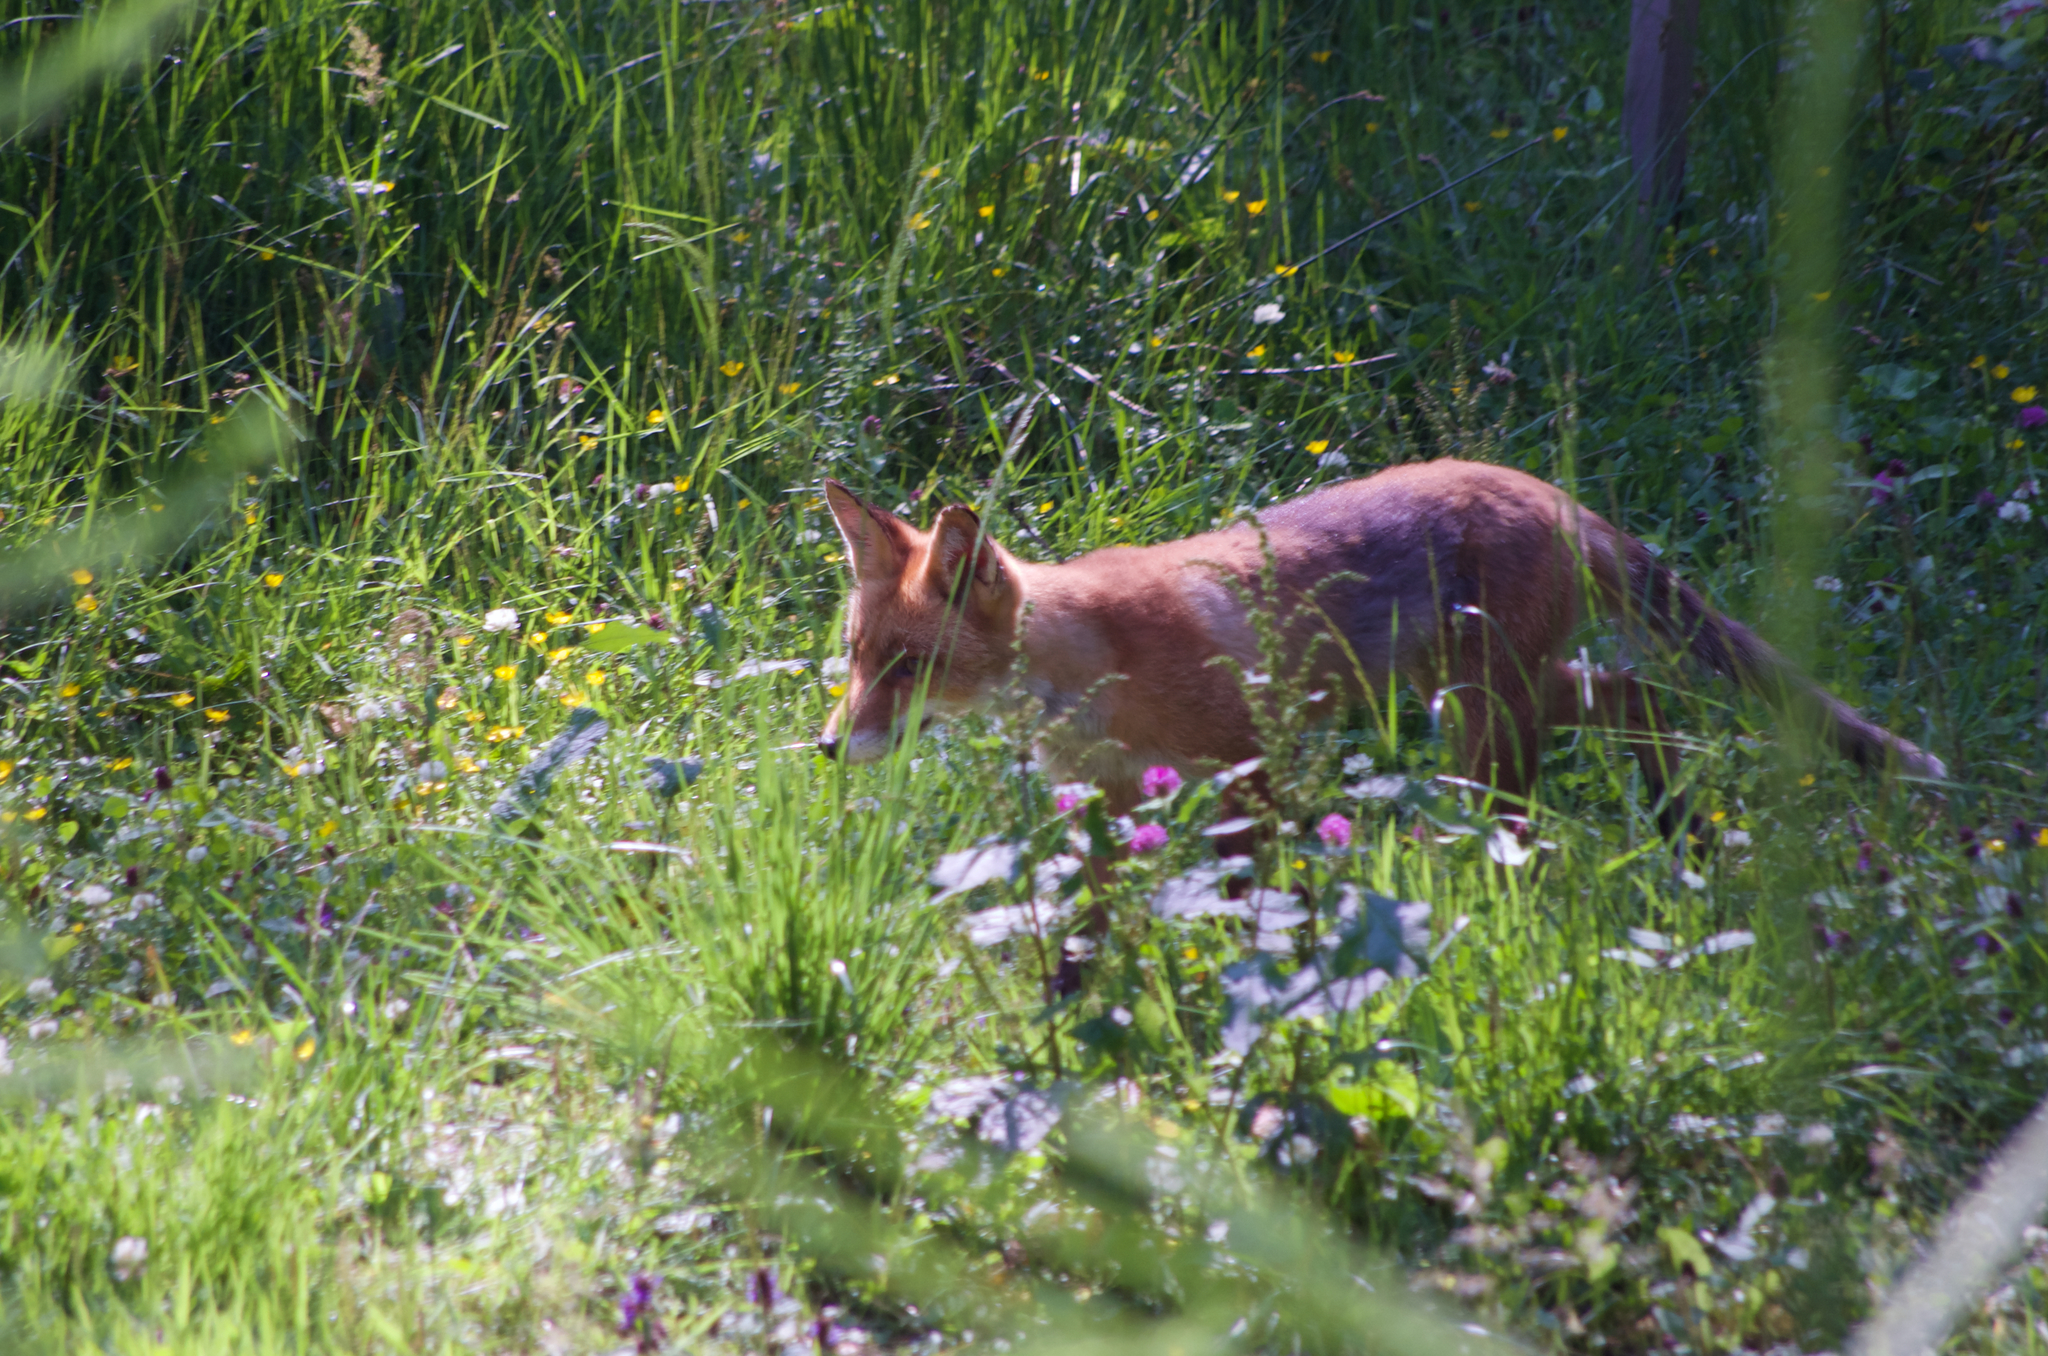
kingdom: Animalia
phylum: Chordata
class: Mammalia
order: Carnivora
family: Canidae
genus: Vulpes
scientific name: Vulpes vulpes
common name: Red fox
